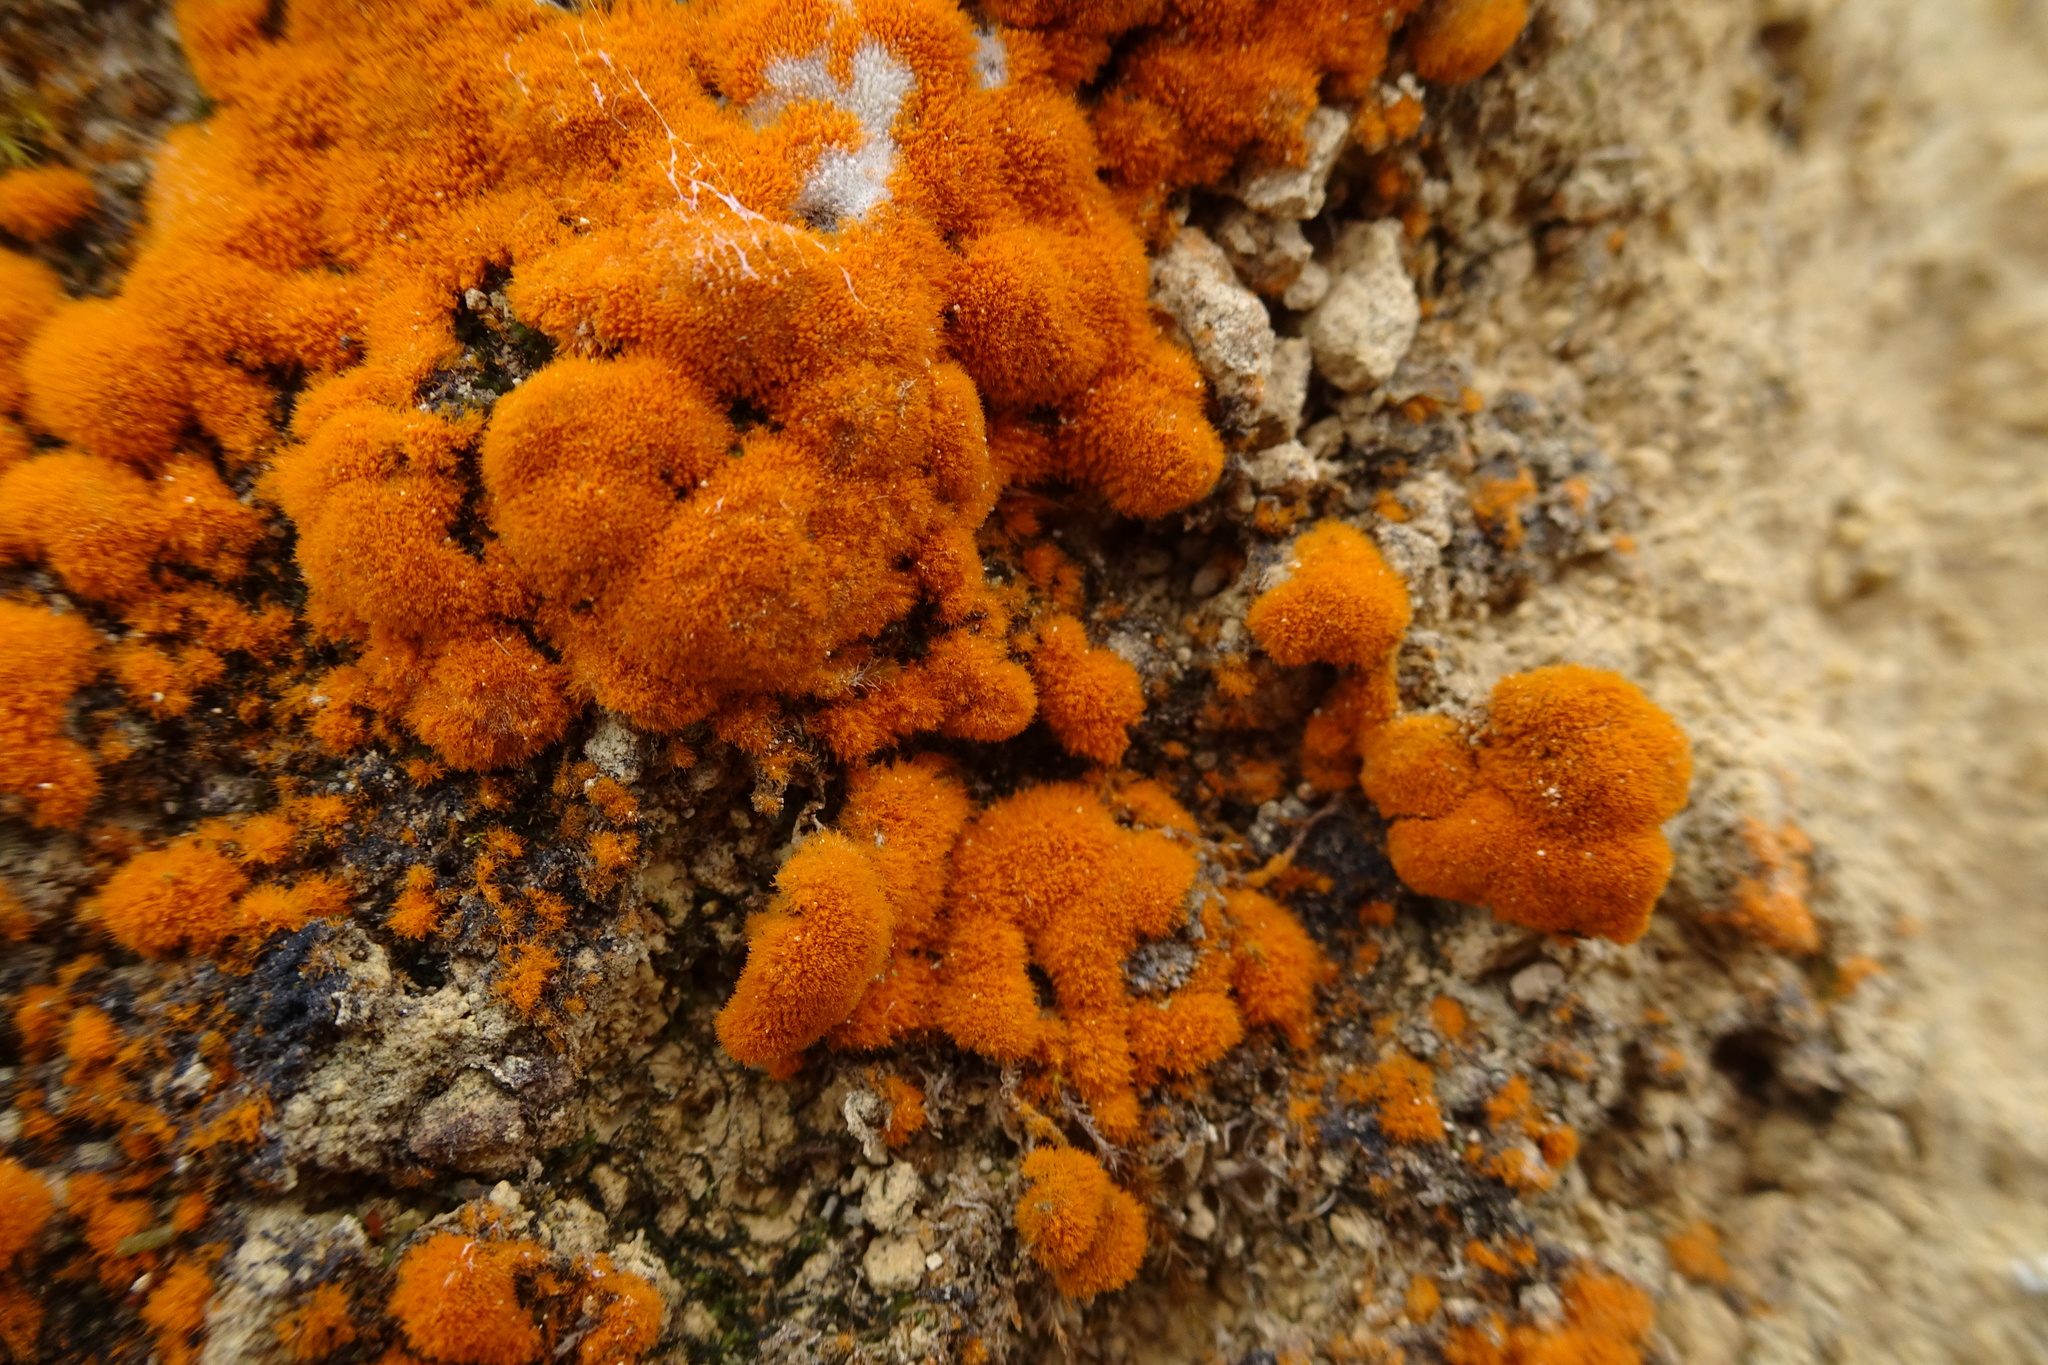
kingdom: Plantae
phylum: Chlorophyta
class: Ulvophyceae
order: Trentepohliales
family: Trentepohliaceae
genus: Trentepohlia
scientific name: Trentepohlia aurea
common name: Orange rock hair
